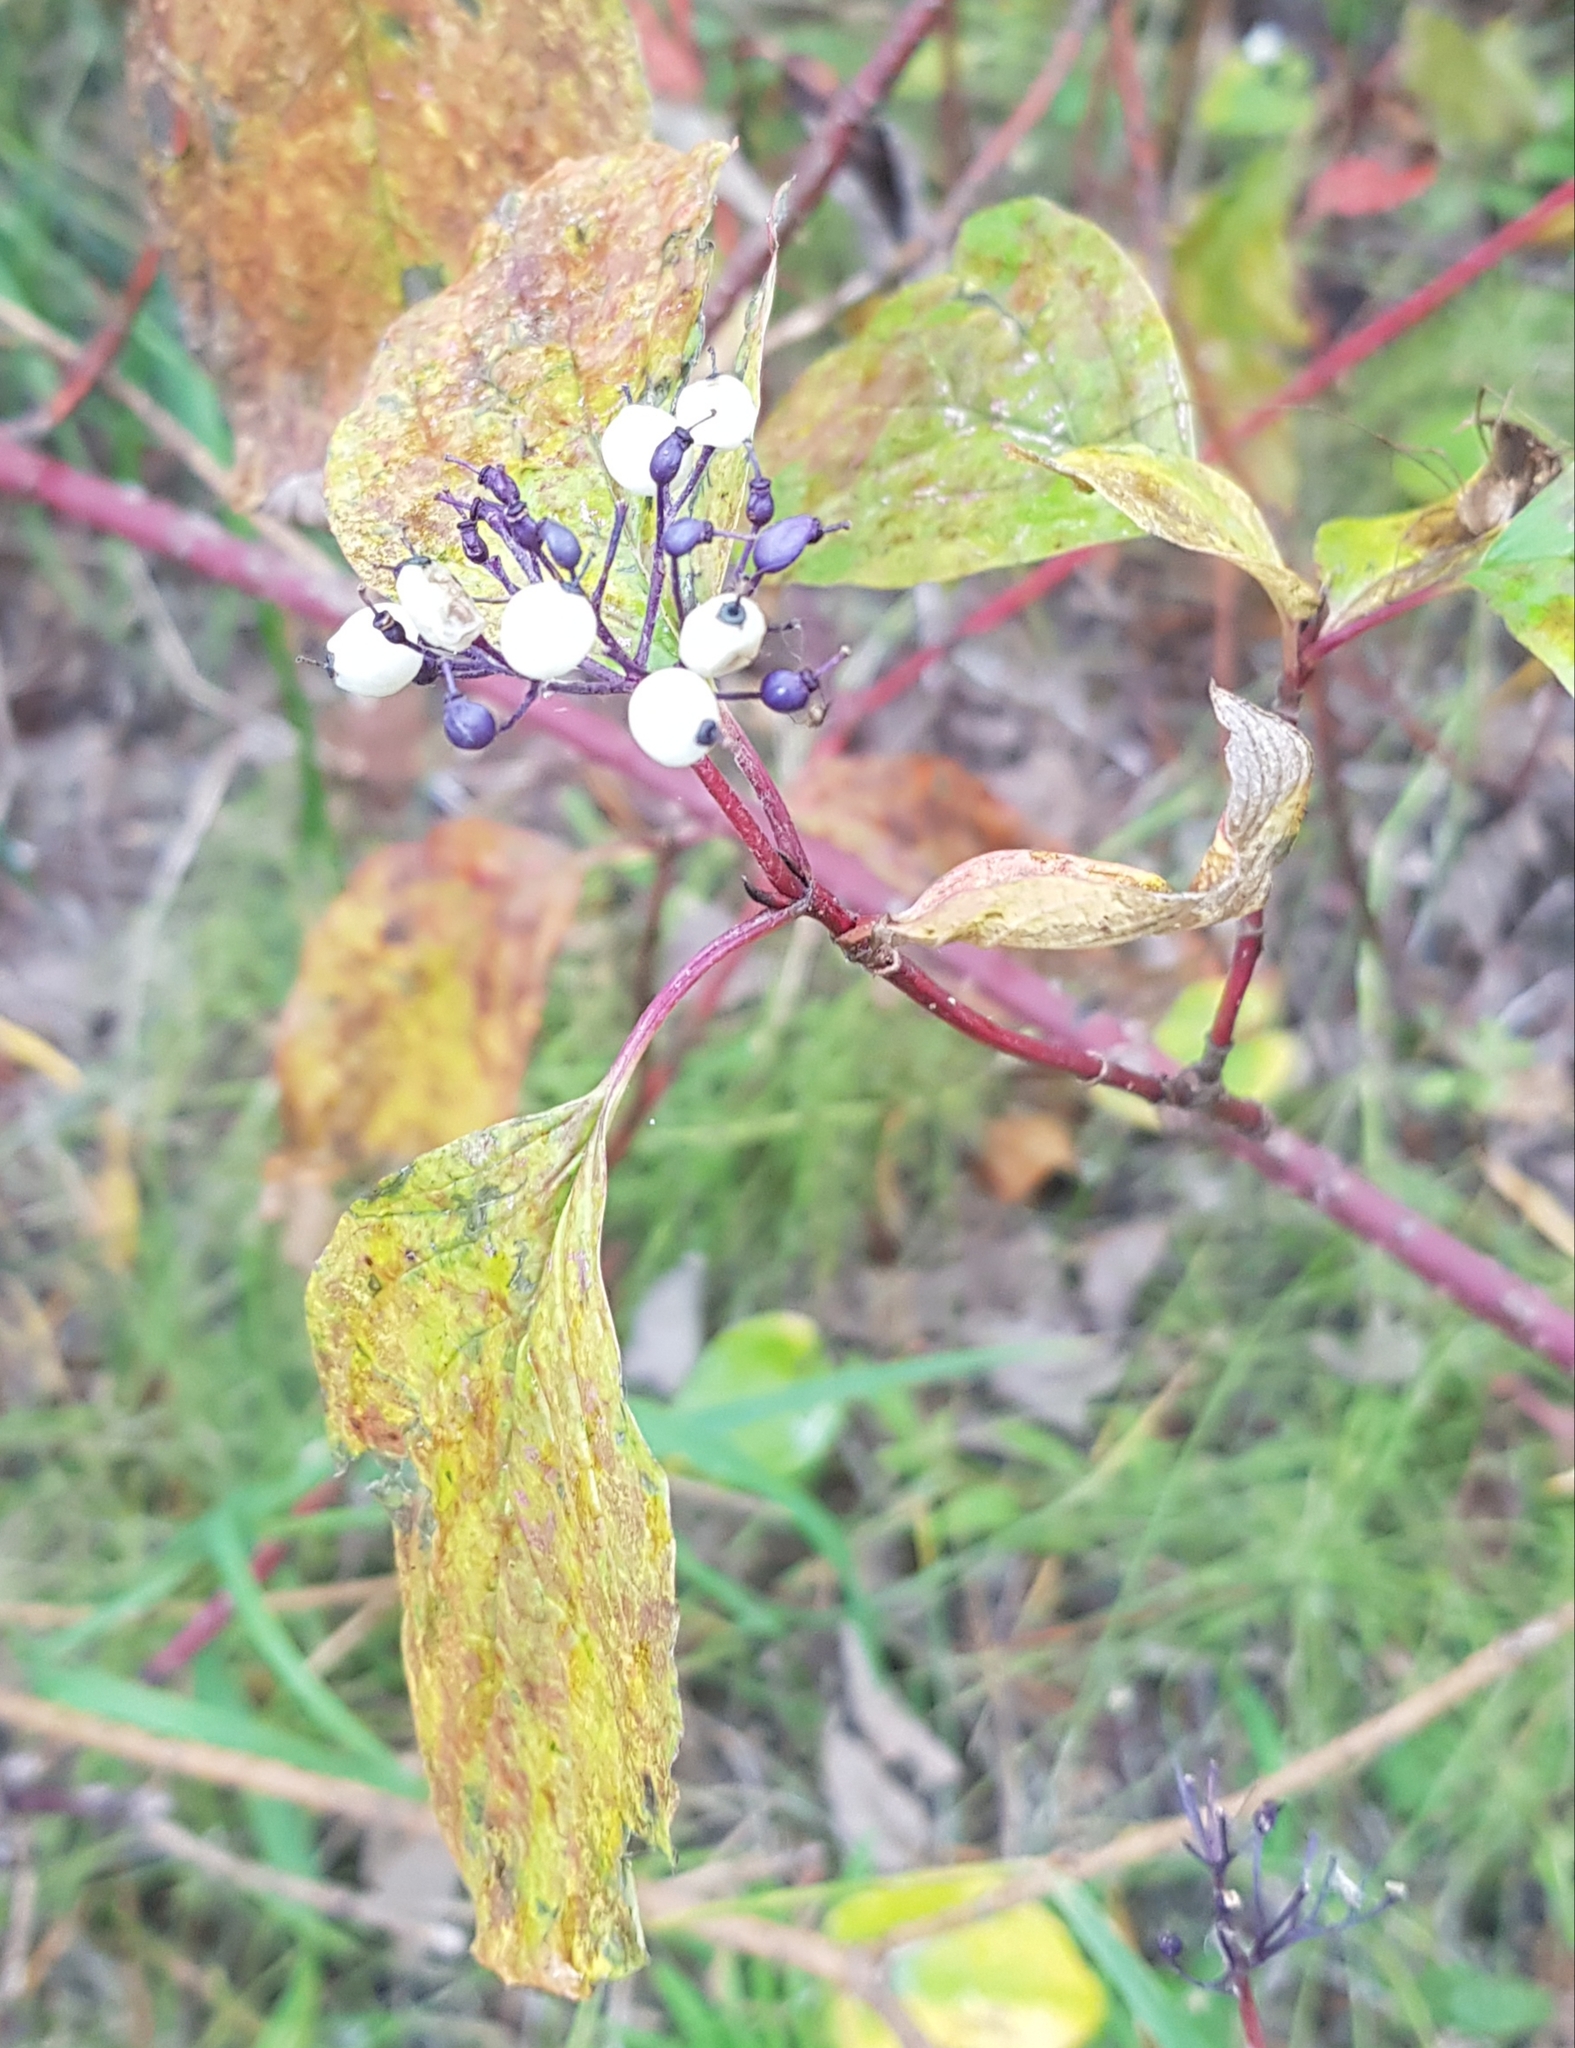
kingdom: Plantae
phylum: Tracheophyta
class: Magnoliopsida
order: Cornales
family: Cornaceae
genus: Cornus
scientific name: Cornus alba
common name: White dogwood
